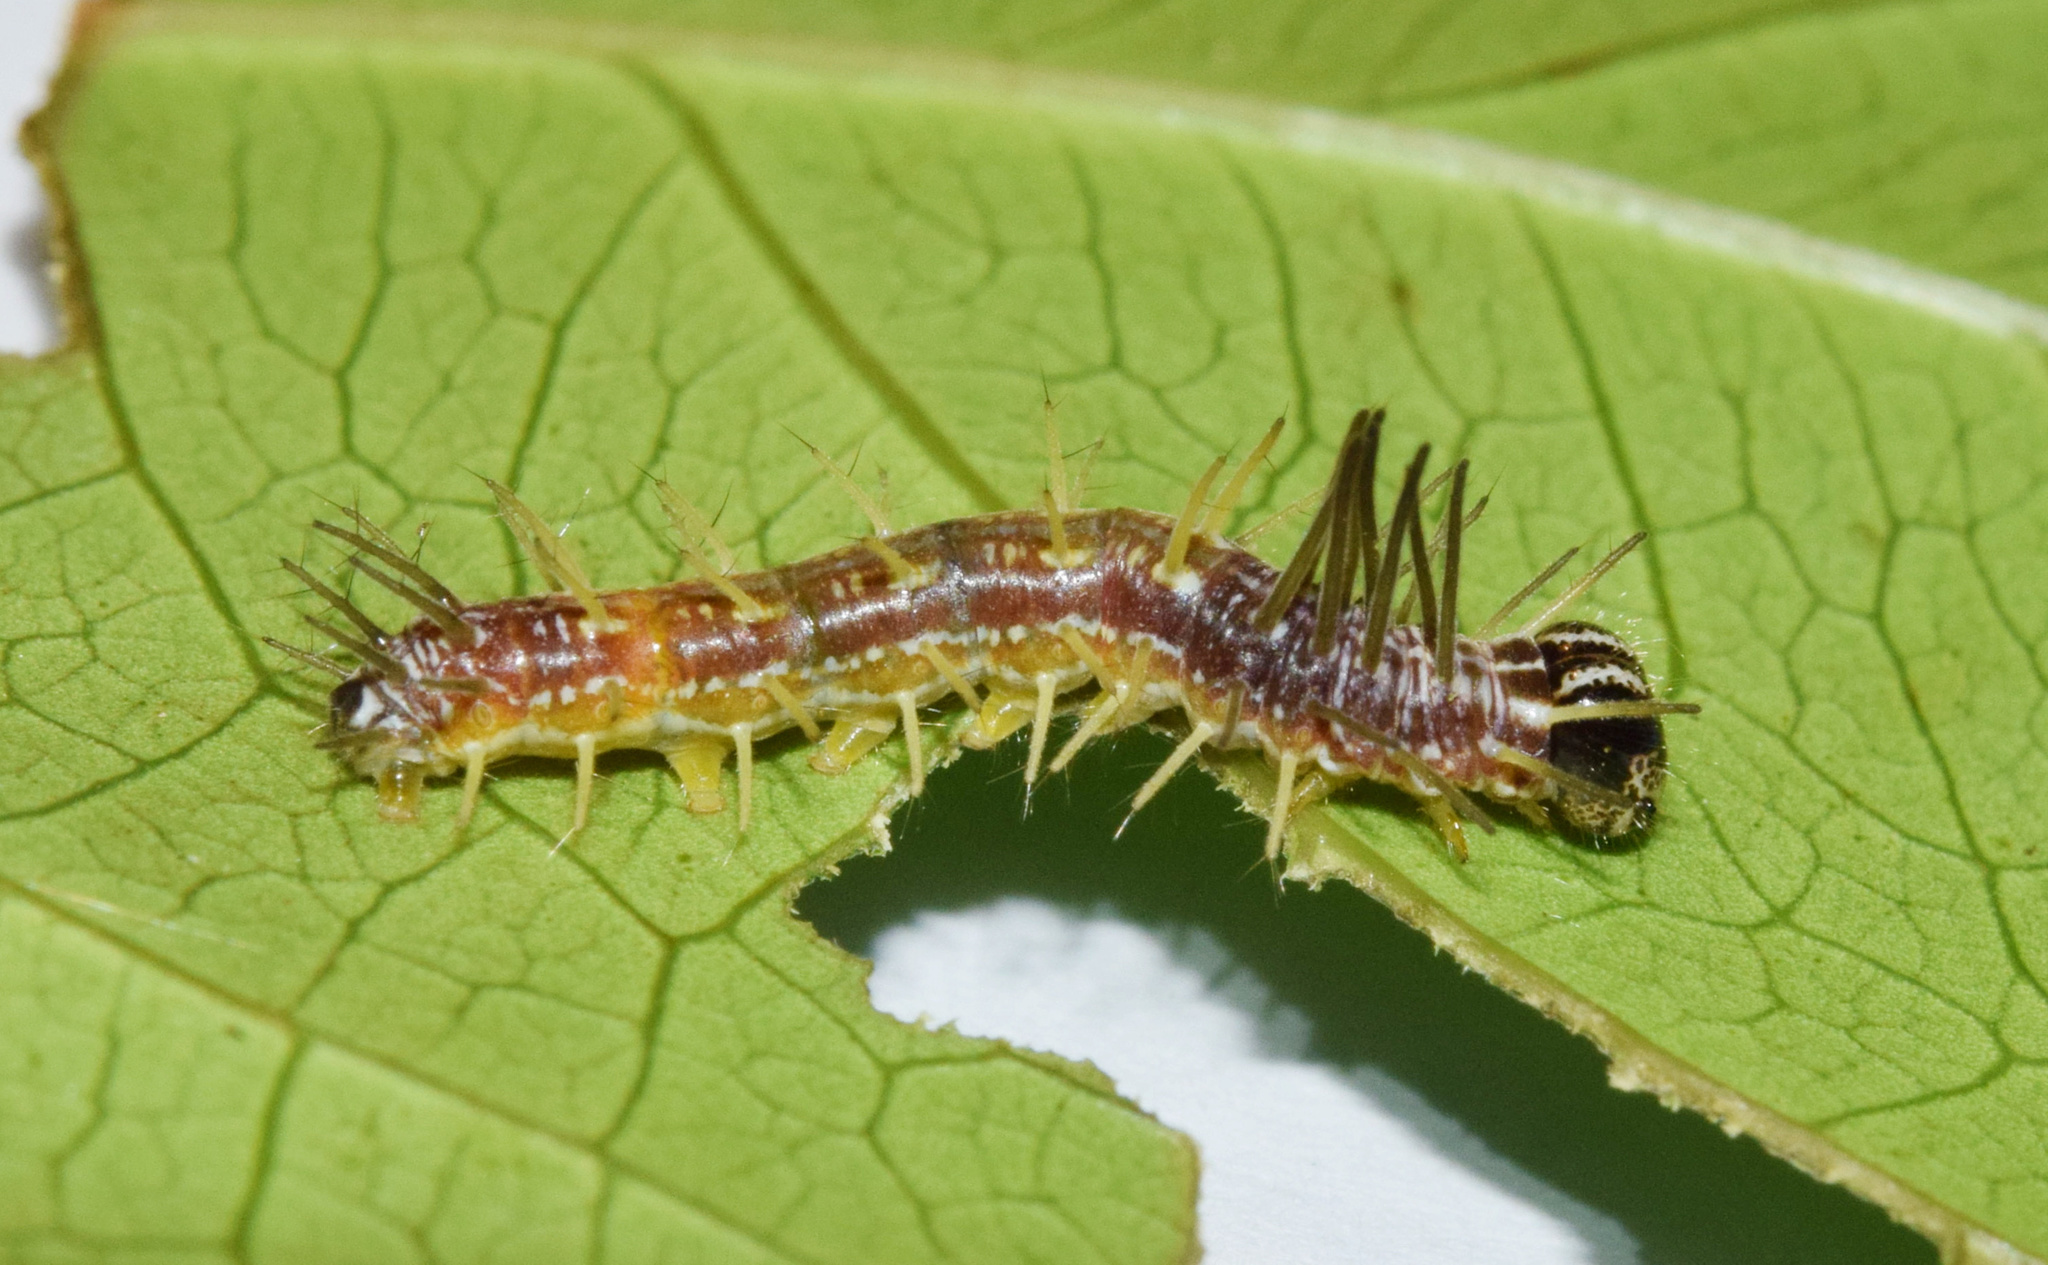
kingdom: Animalia
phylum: Arthropoda
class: Insecta
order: Lepidoptera
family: Nymphalidae
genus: Rubraea
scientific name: Rubraea
